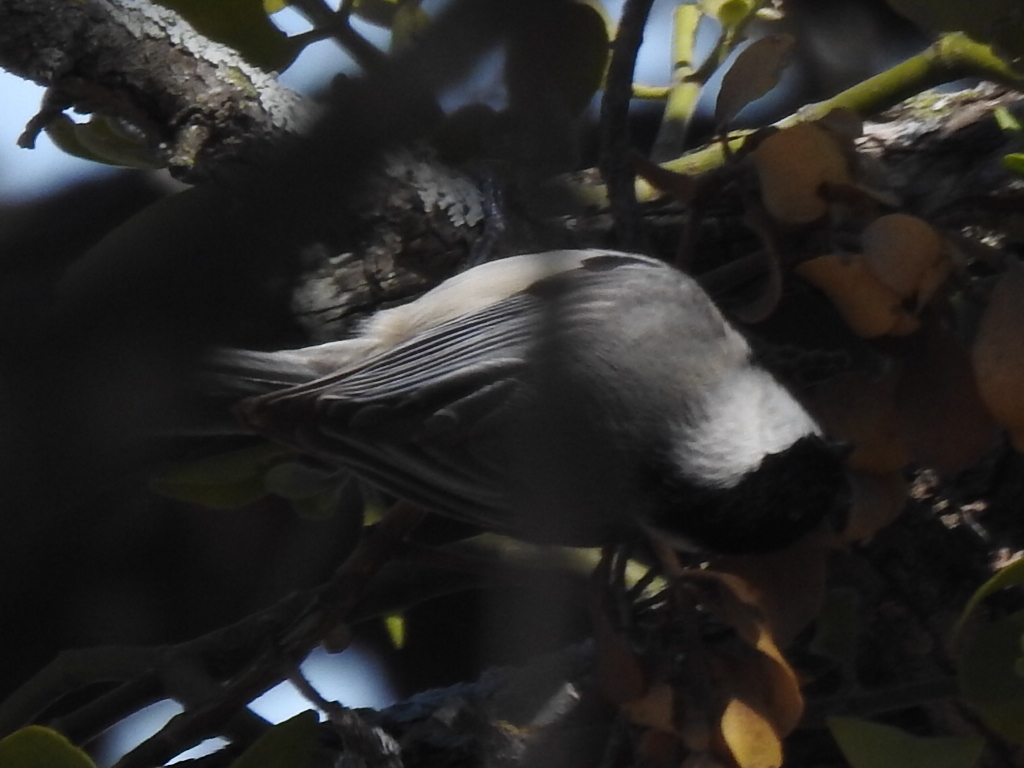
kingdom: Animalia
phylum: Chordata
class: Aves
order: Passeriformes
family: Paridae
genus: Poecile
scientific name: Poecile carolinensis
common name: Carolina chickadee
